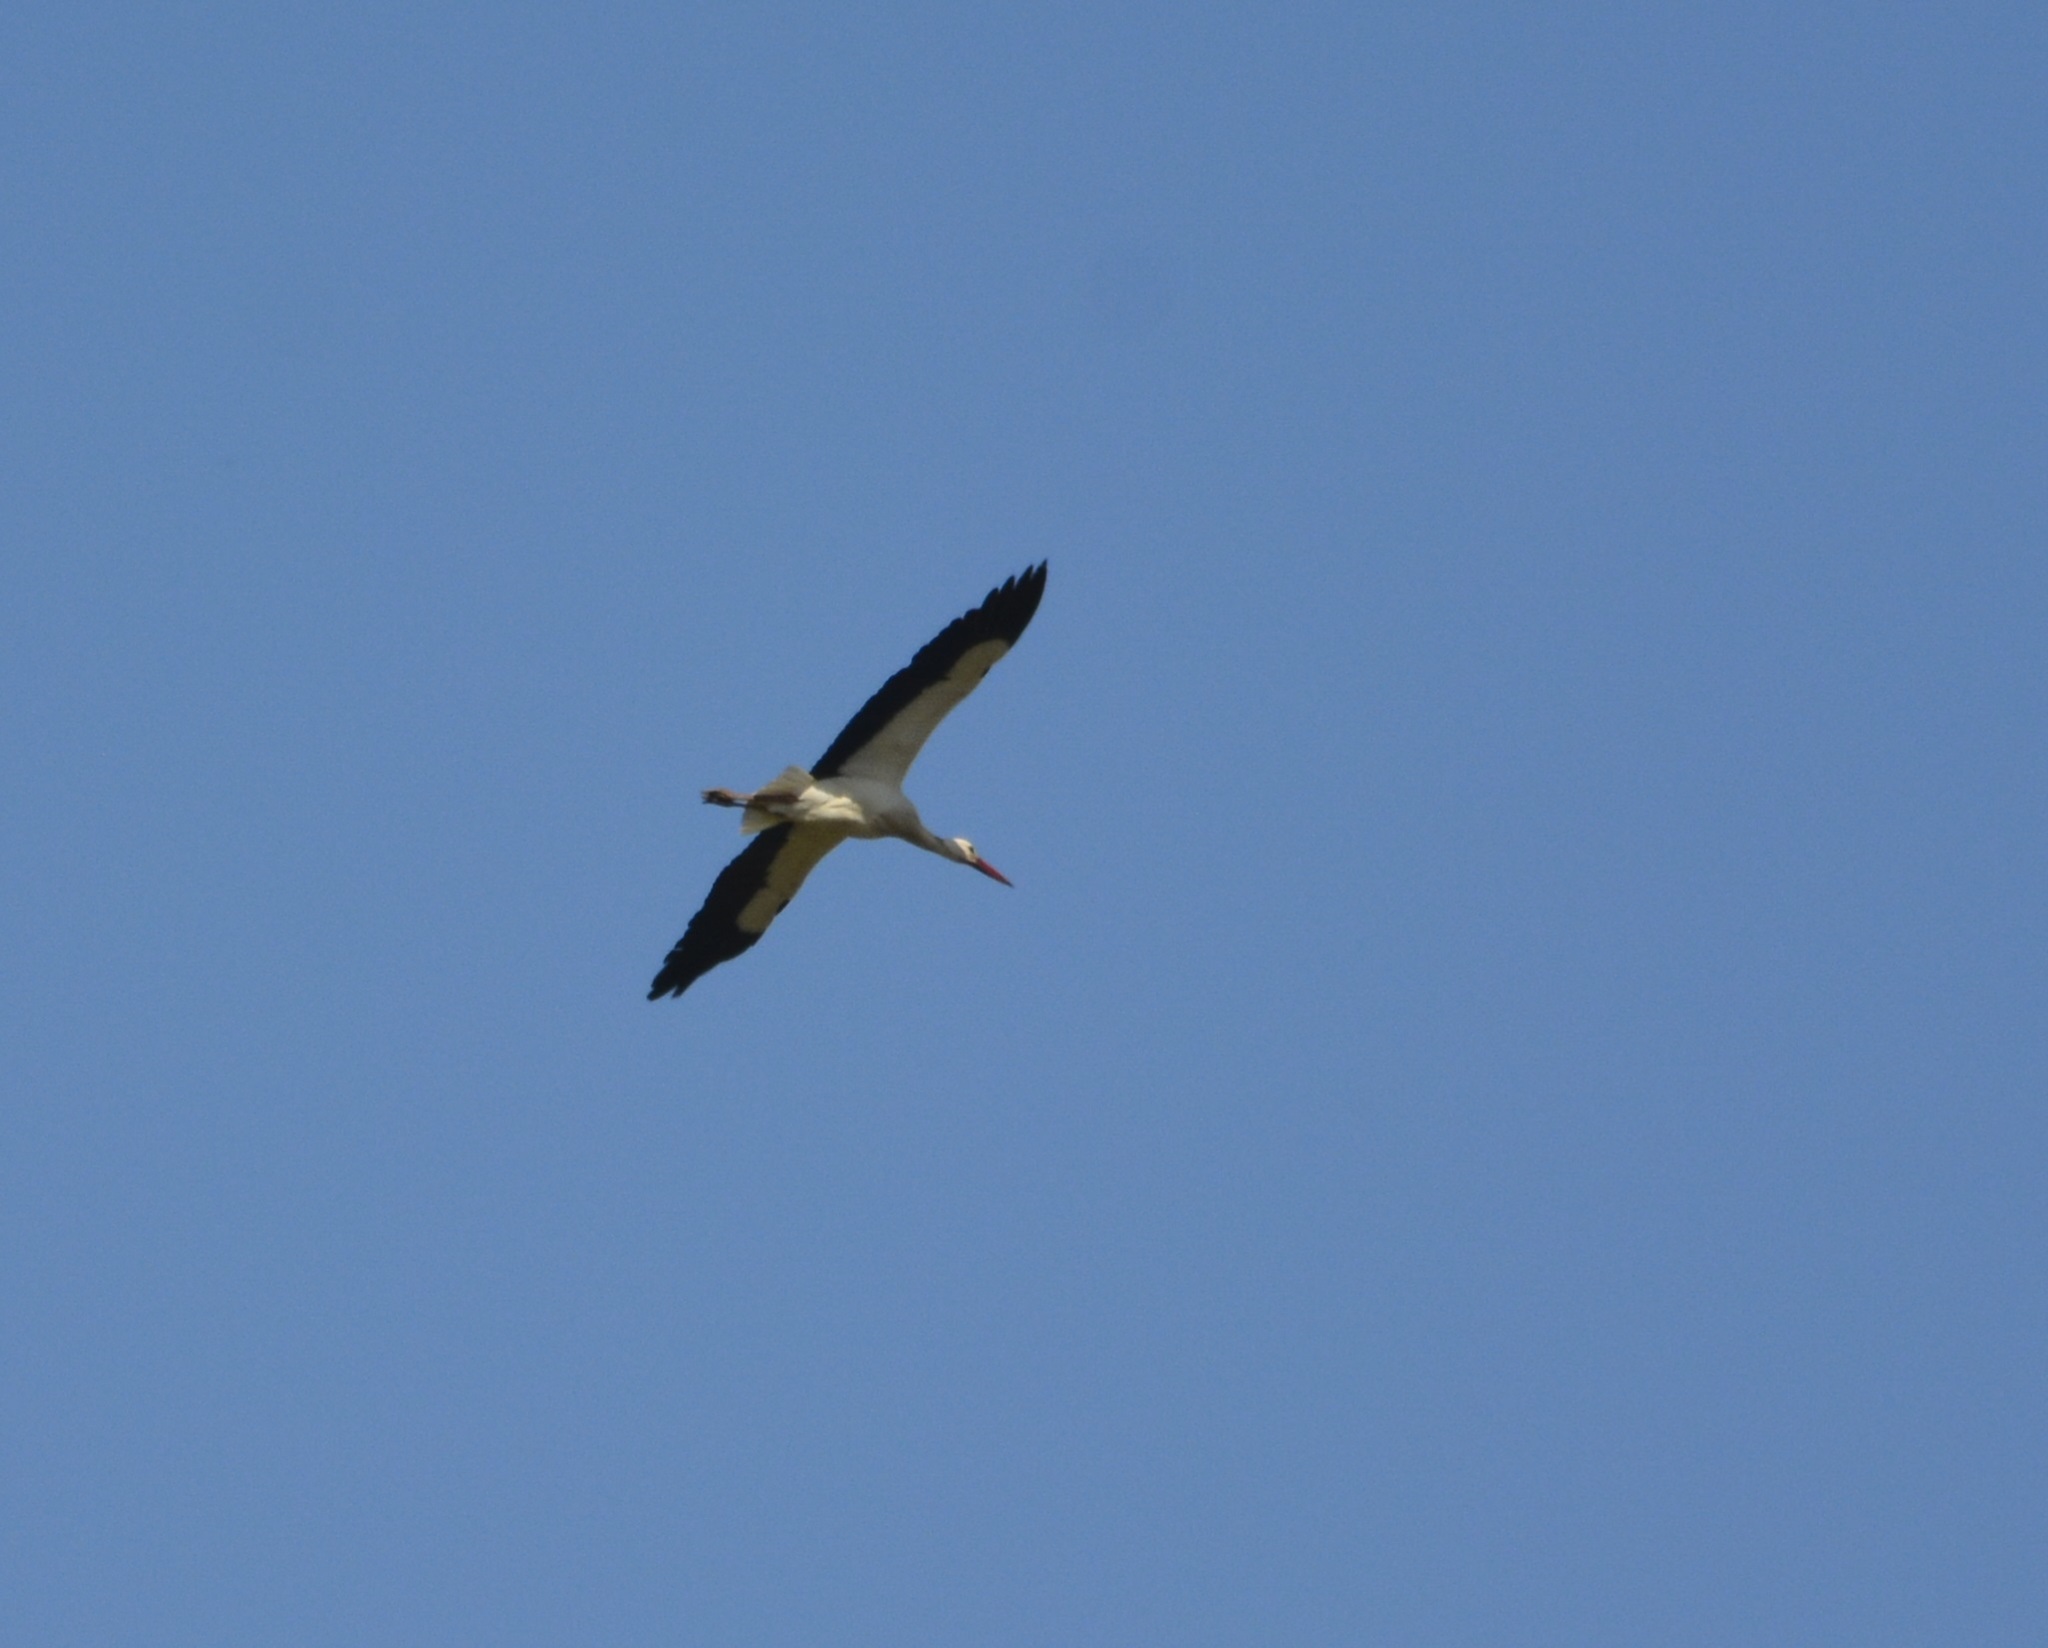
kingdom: Animalia
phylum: Chordata
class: Aves
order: Ciconiiformes
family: Ciconiidae
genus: Ciconia
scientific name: Ciconia ciconia
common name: White stork
